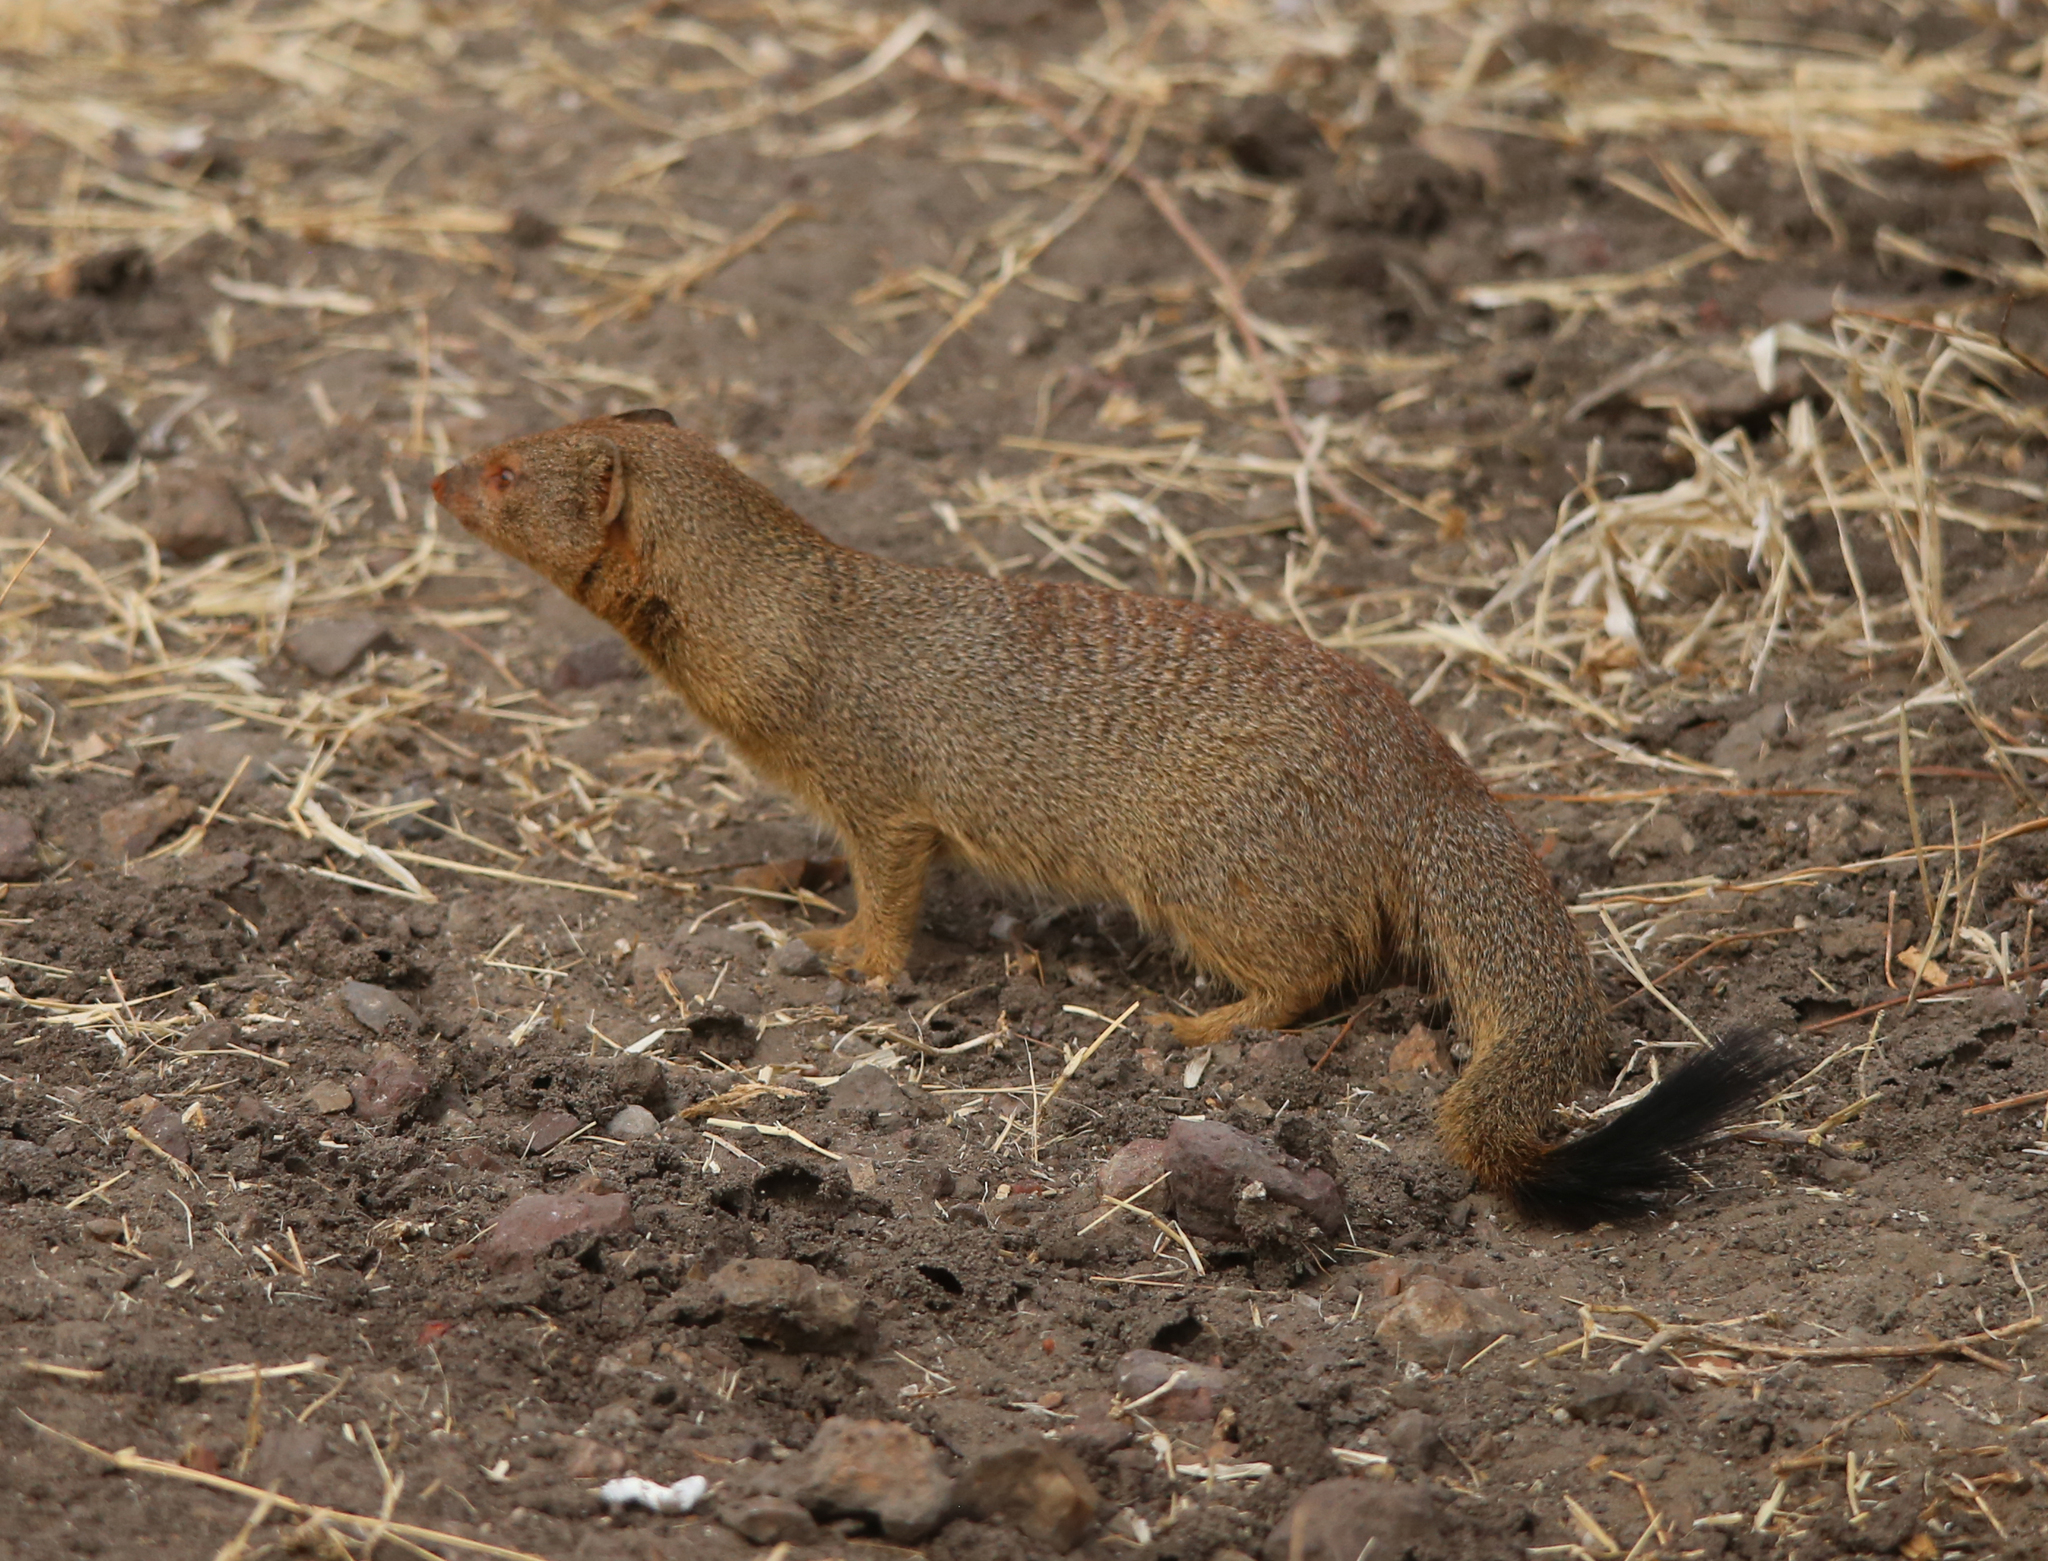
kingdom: Animalia
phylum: Chordata
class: Mammalia
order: Carnivora
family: Herpestidae
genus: Galerella
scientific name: Galerella sanguinea
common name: Slender mongoose
